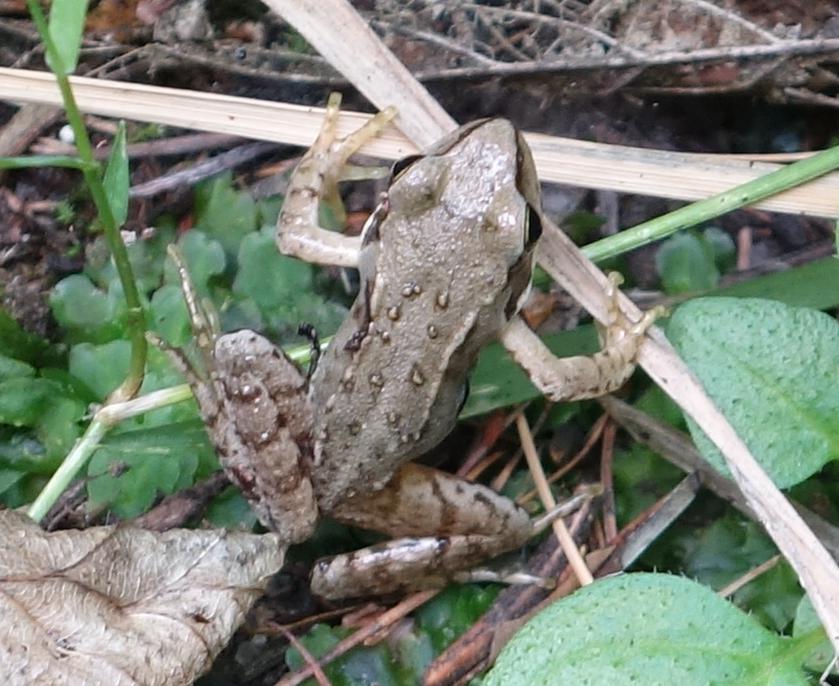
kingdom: Animalia
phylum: Chordata
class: Amphibia
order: Anura
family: Ranidae
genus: Rana
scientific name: Rana temporaria
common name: Common frog
